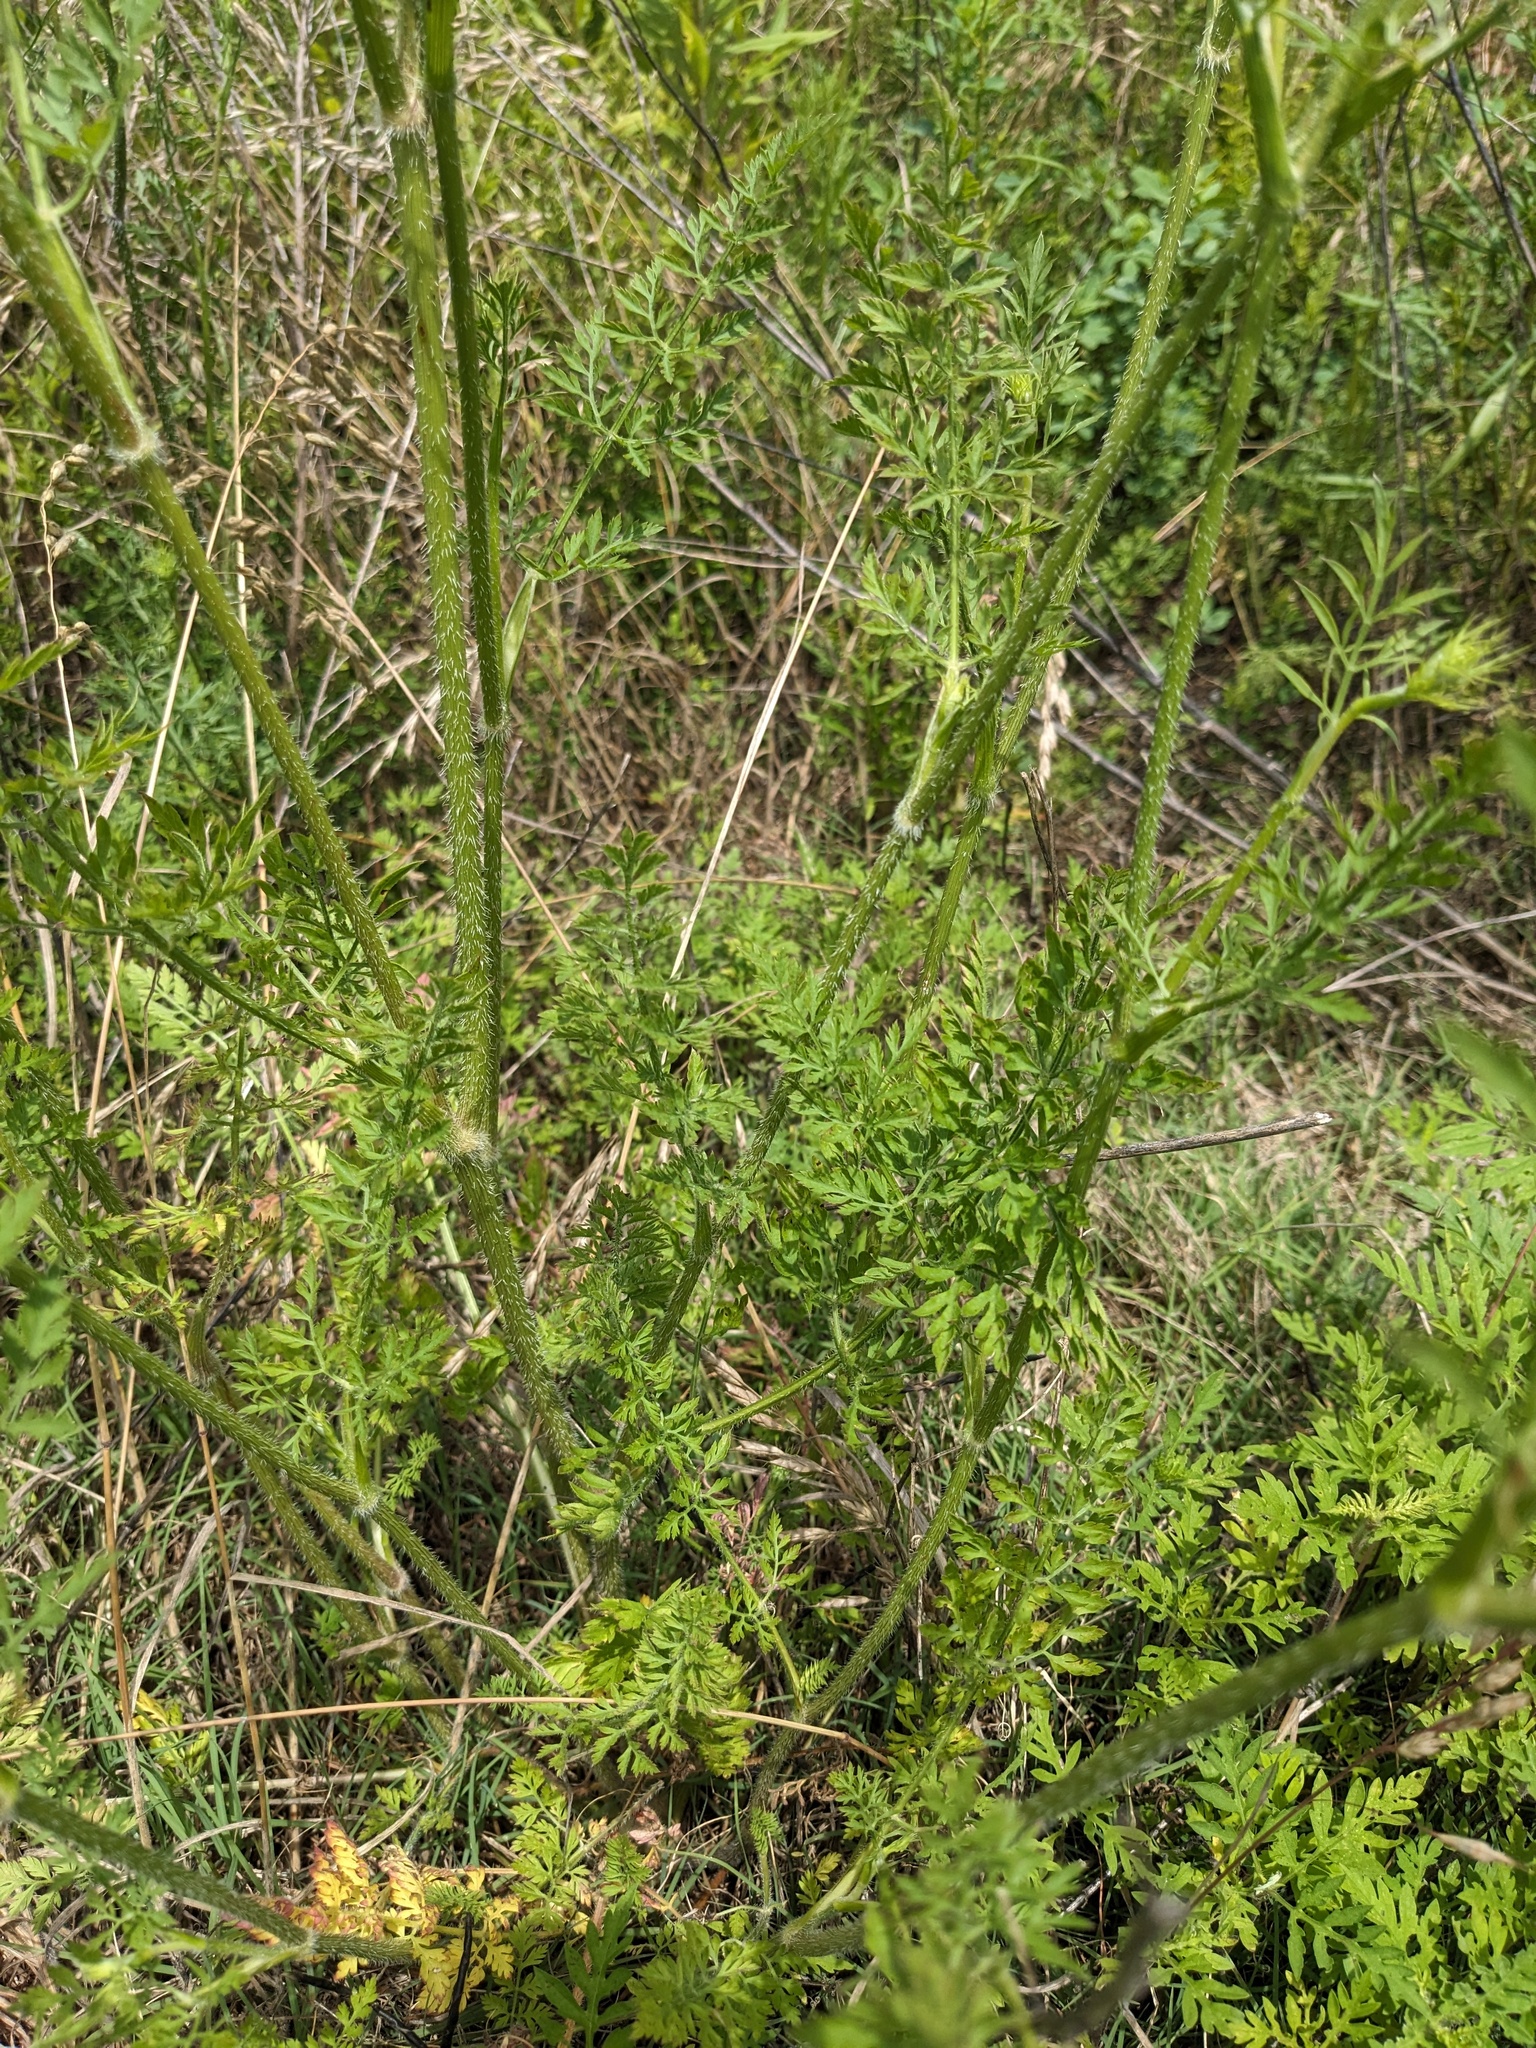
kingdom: Plantae
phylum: Tracheophyta
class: Magnoliopsida
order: Apiales
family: Apiaceae
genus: Daucus
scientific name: Daucus carota
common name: Wild carrot
